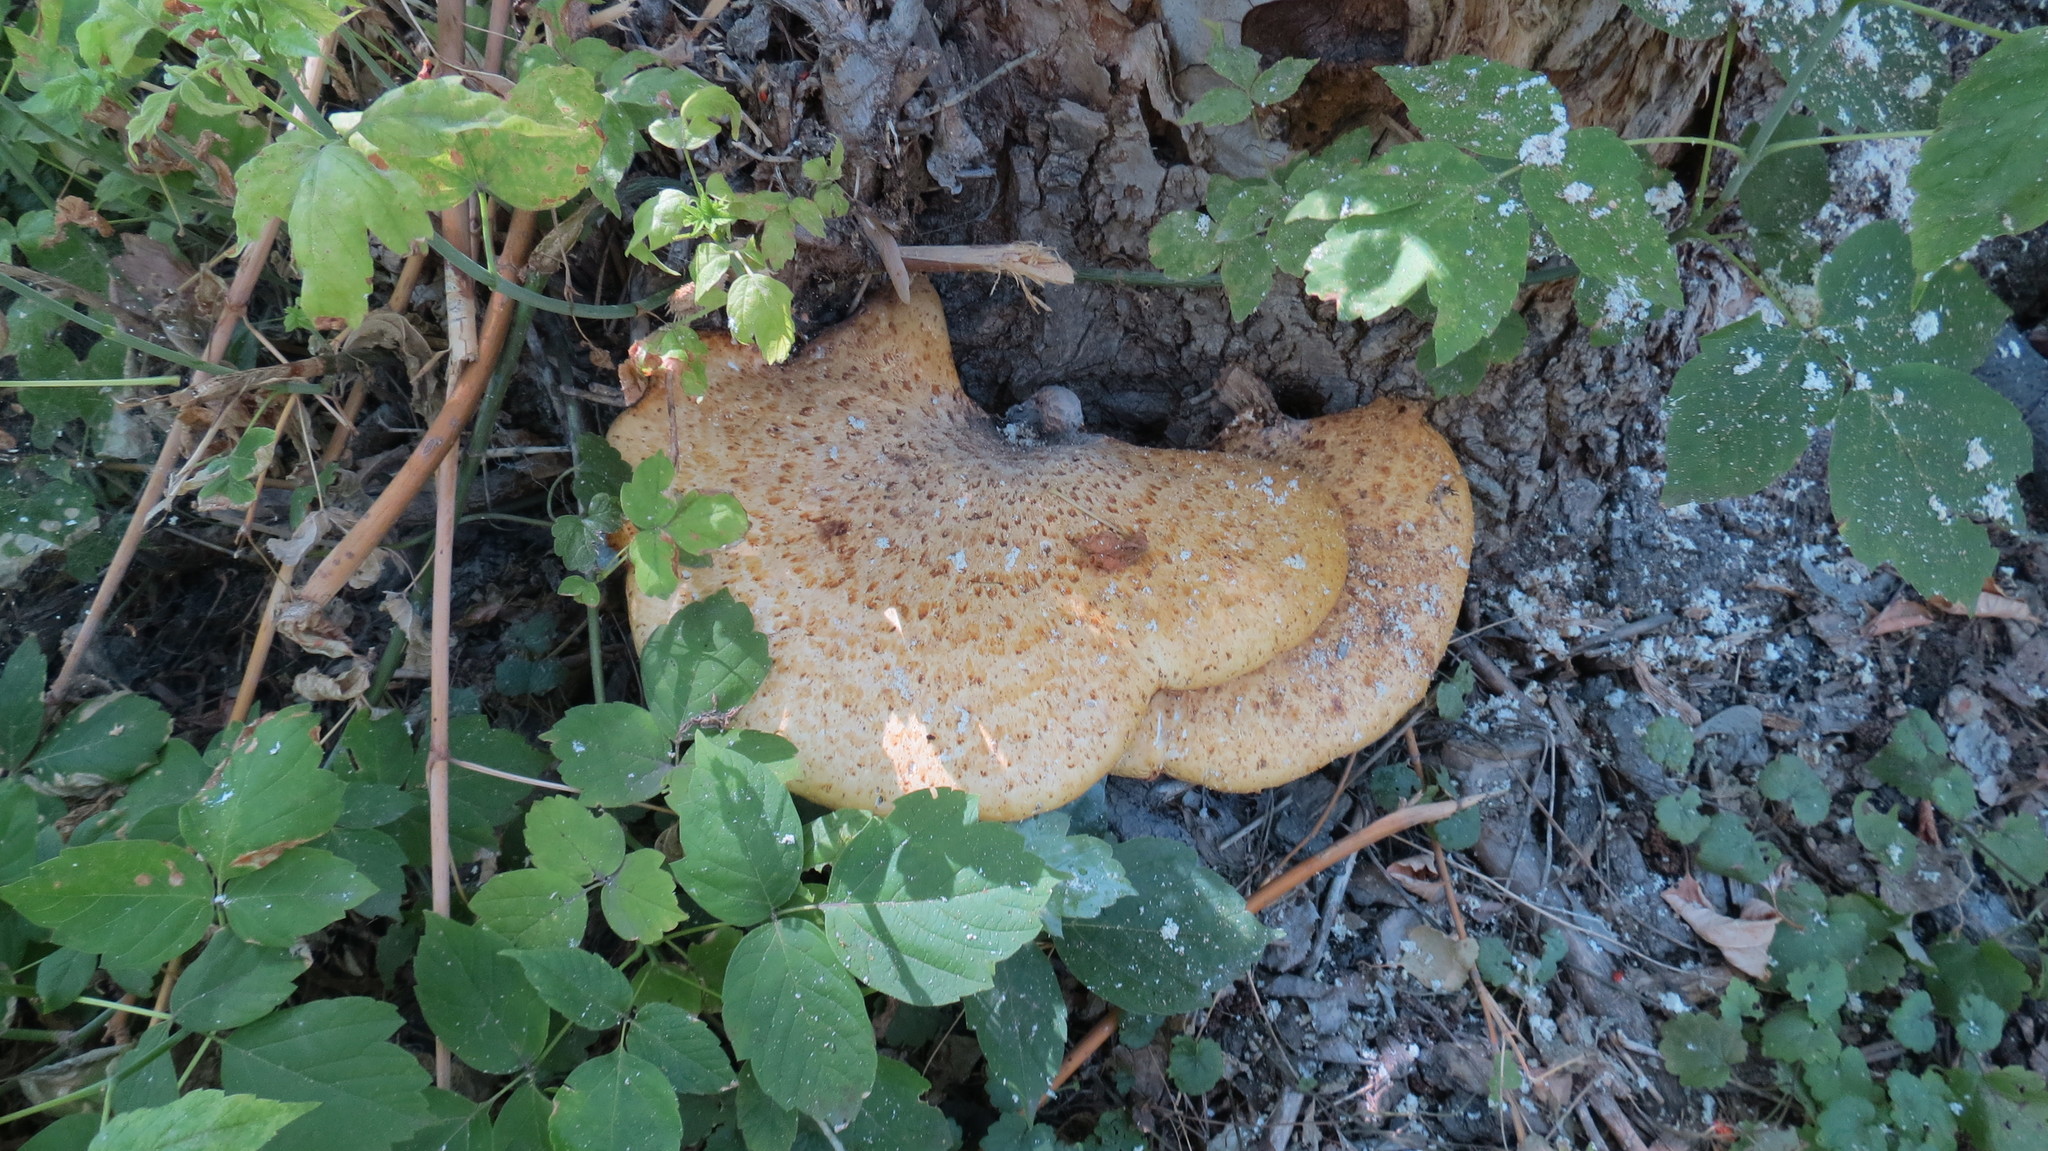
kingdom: Fungi
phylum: Basidiomycota
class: Agaricomycetes
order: Polyporales
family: Polyporaceae
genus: Cerioporus
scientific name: Cerioporus squamosus
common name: Dryad's saddle
